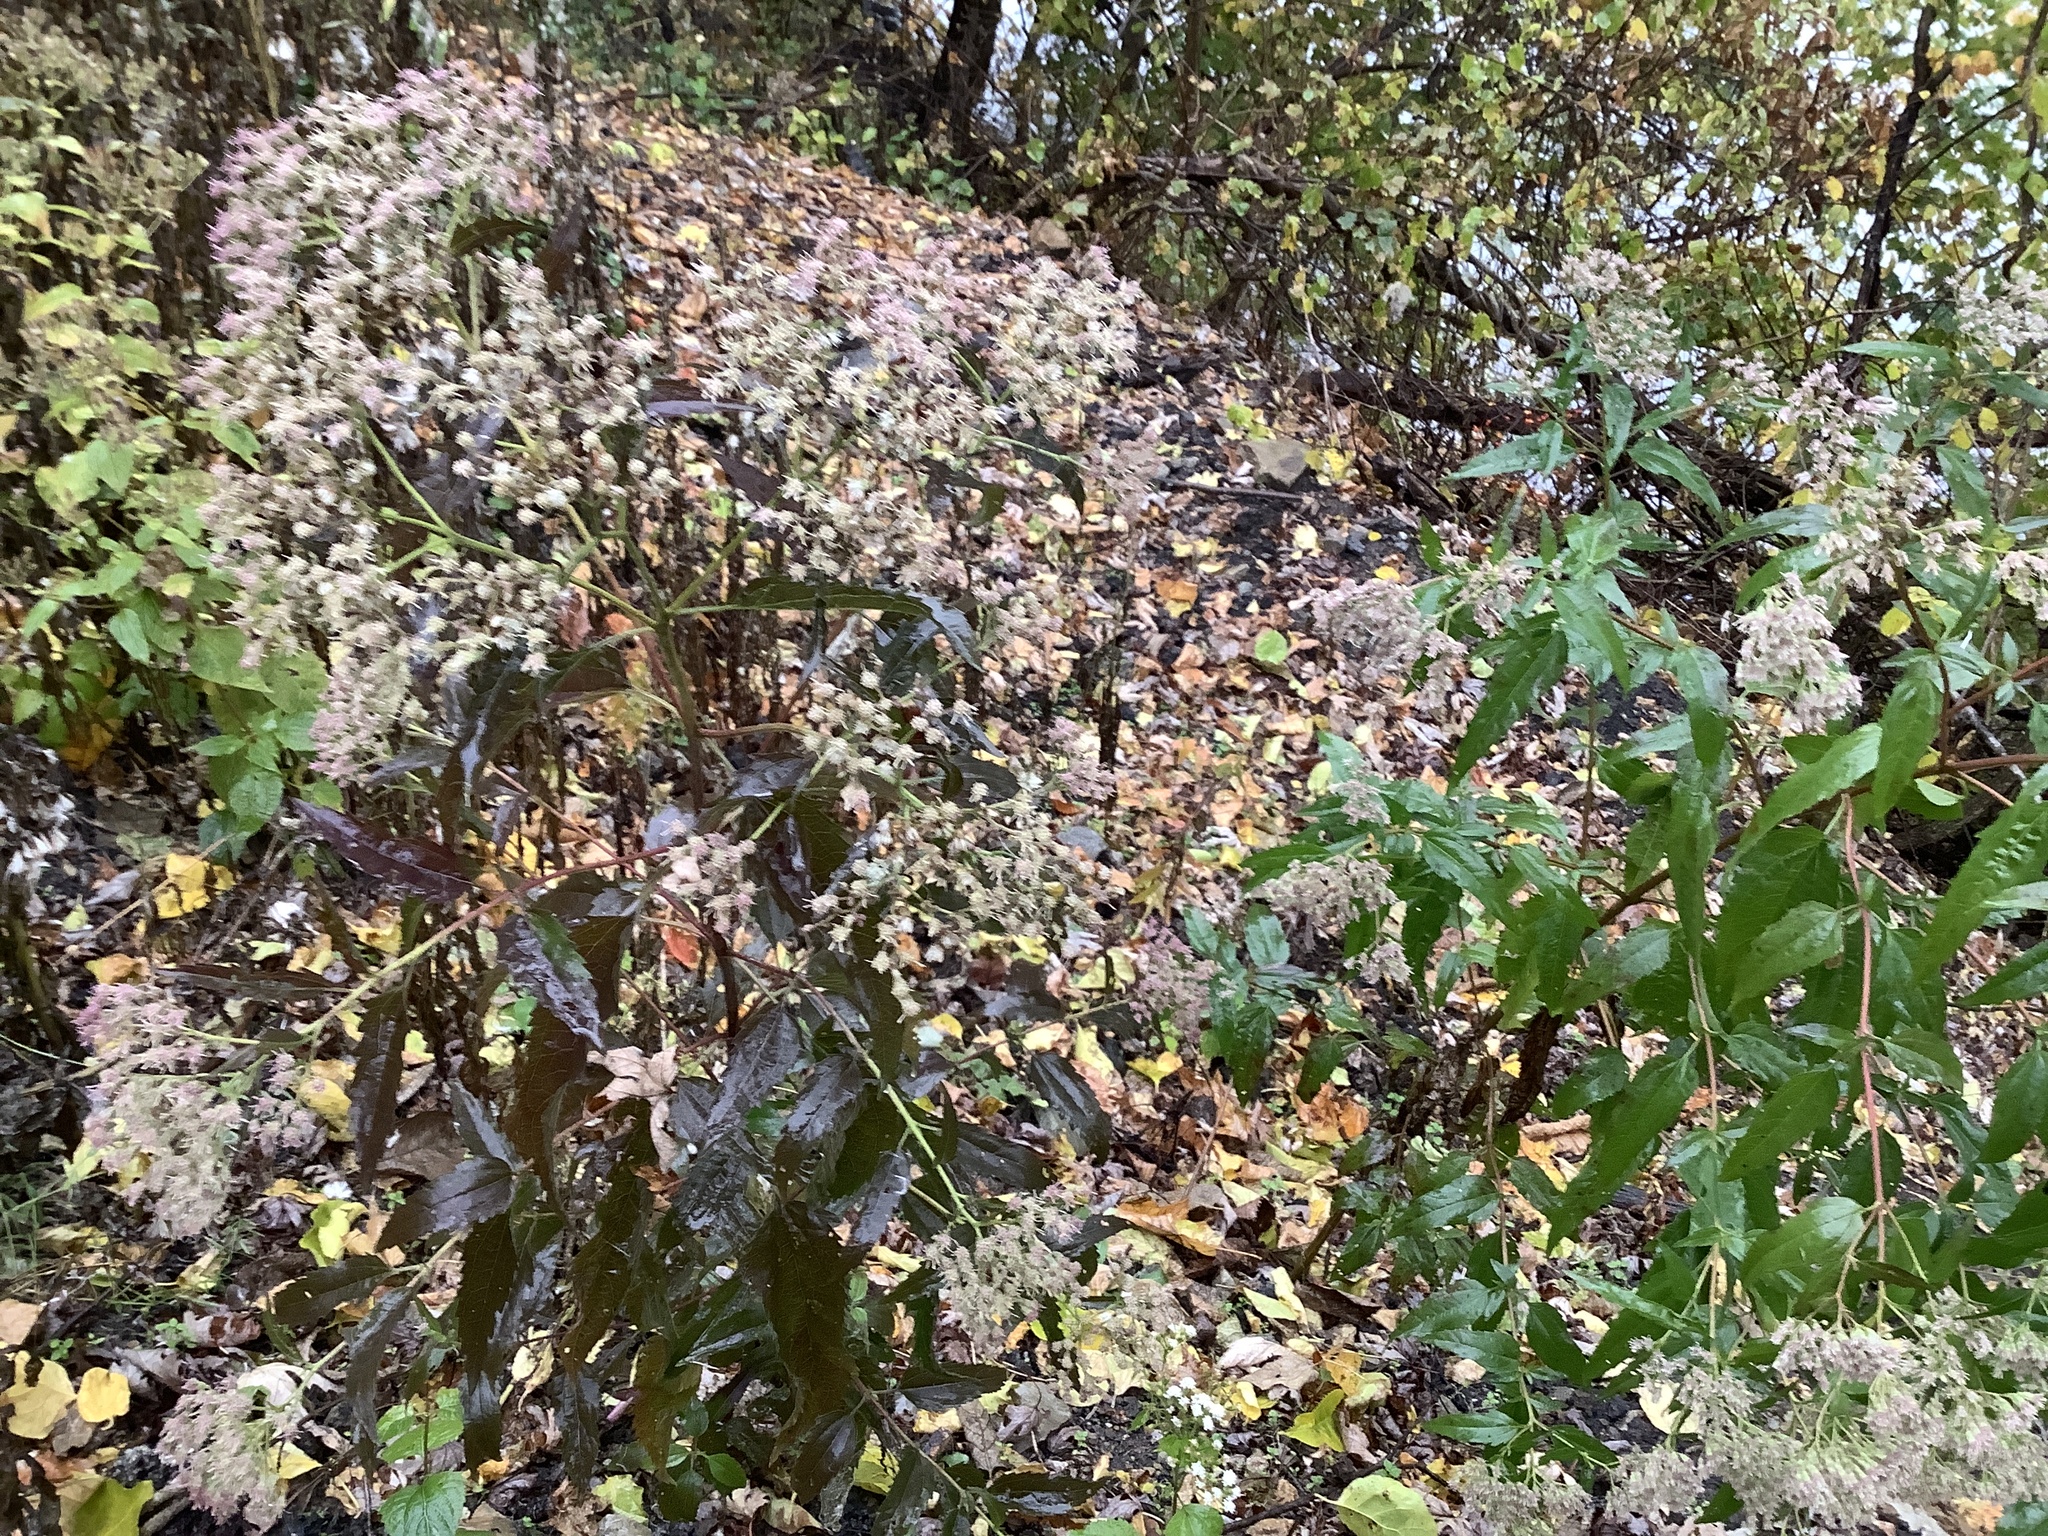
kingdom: Plantae
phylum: Tracheophyta
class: Magnoliopsida
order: Asterales
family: Asteraceae
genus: Eupatorium
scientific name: Eupatorium serotinum
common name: Late boneset
